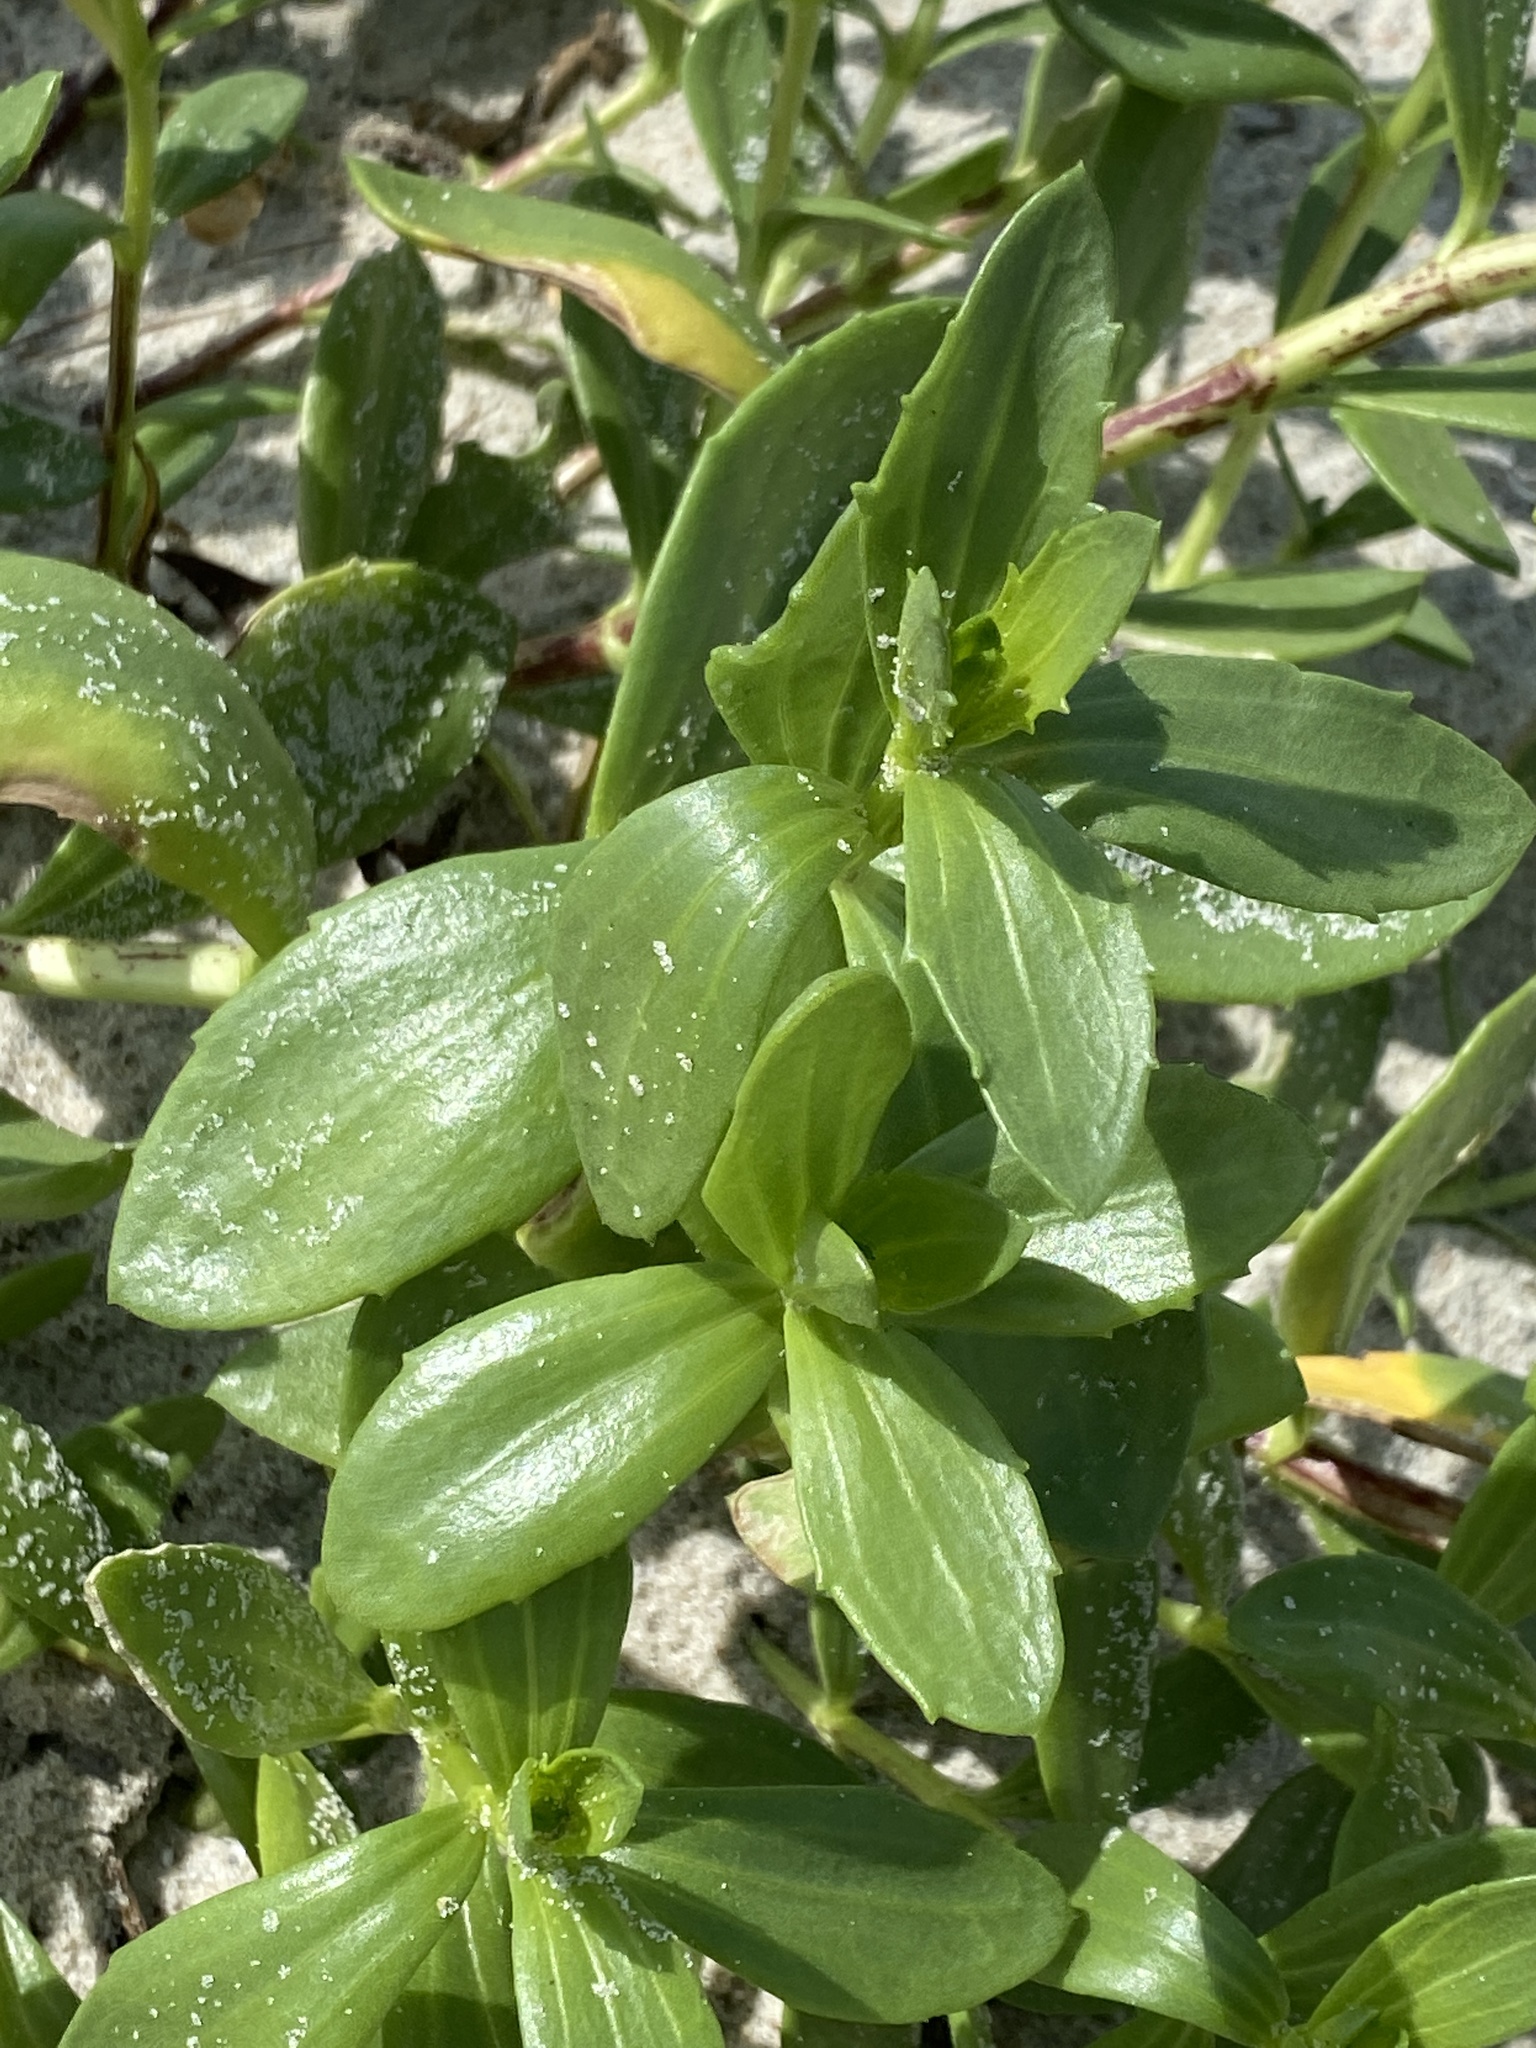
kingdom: Plantae
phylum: Tracheophyta
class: Magnoliopsida
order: Asterales
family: Asteraceae
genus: Iva
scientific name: Iva imbricata
